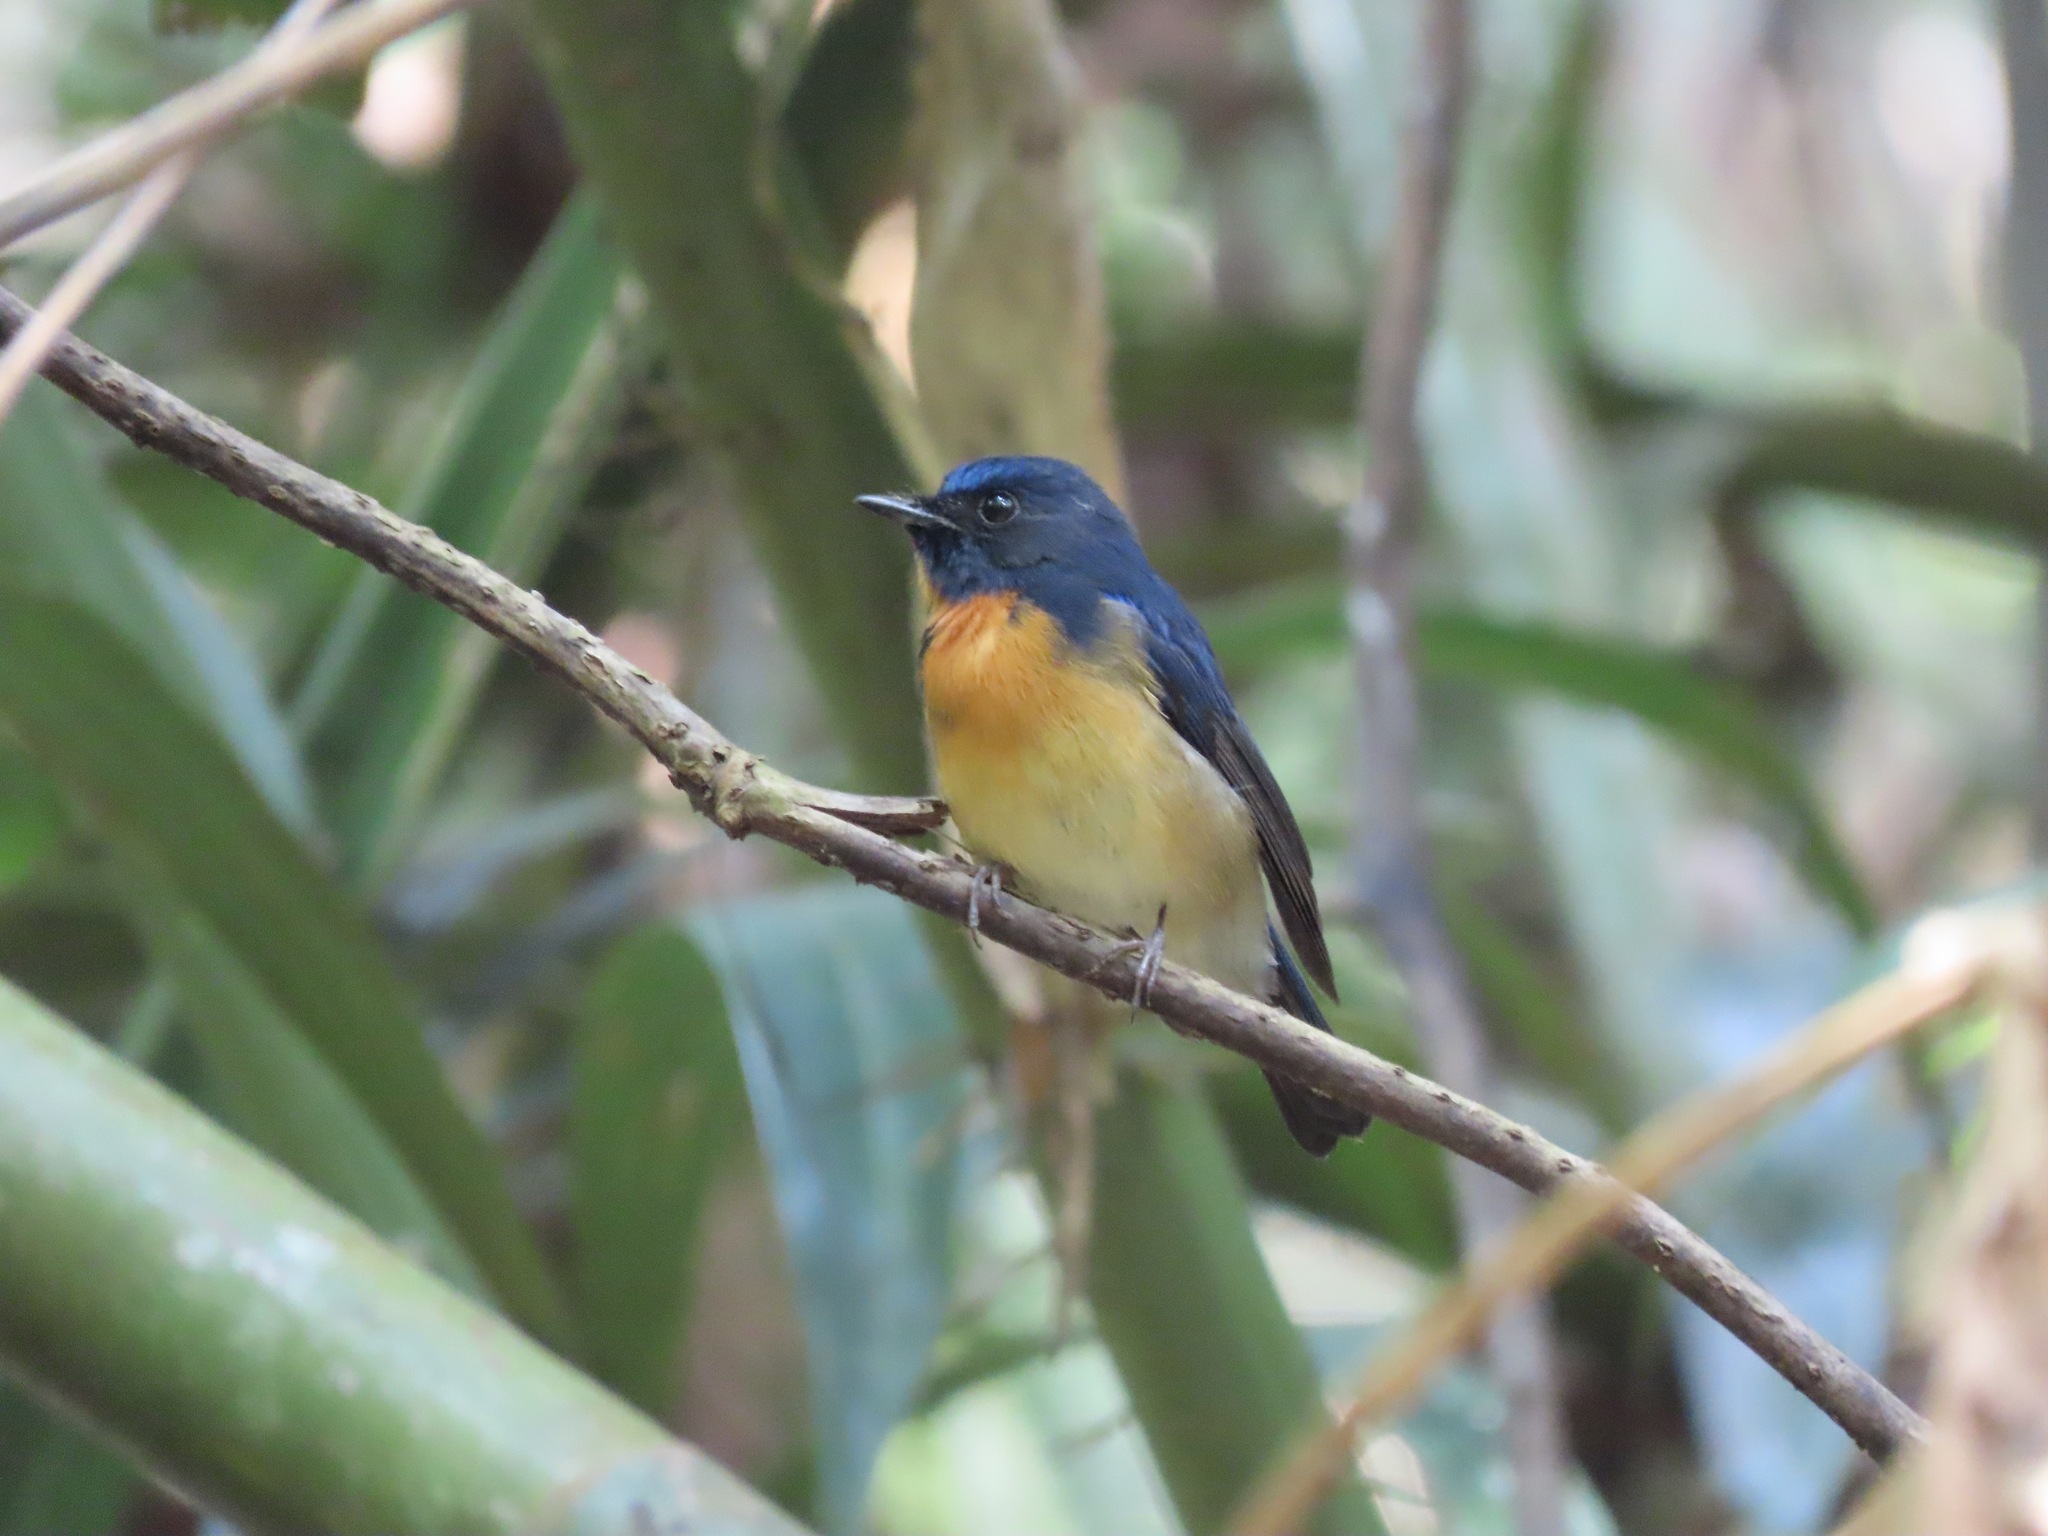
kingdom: Animalia
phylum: Chordata
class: Aves
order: Passeriformes
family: Muscicapidae
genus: Cyornis
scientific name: Cyornis glaucicomans
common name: Chinese blue flycatcher
